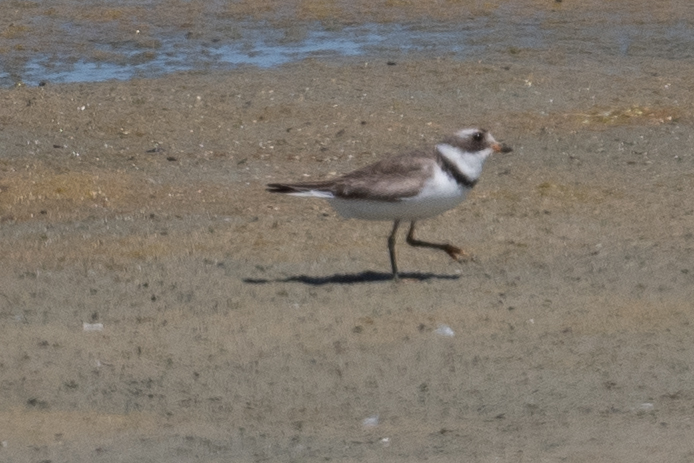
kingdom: Animalia
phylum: Chordata
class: Aves
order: Charadriiformes
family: Charadriidae
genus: Charadrius
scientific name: Charadrius semipalmatus
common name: Semipalmated plover
